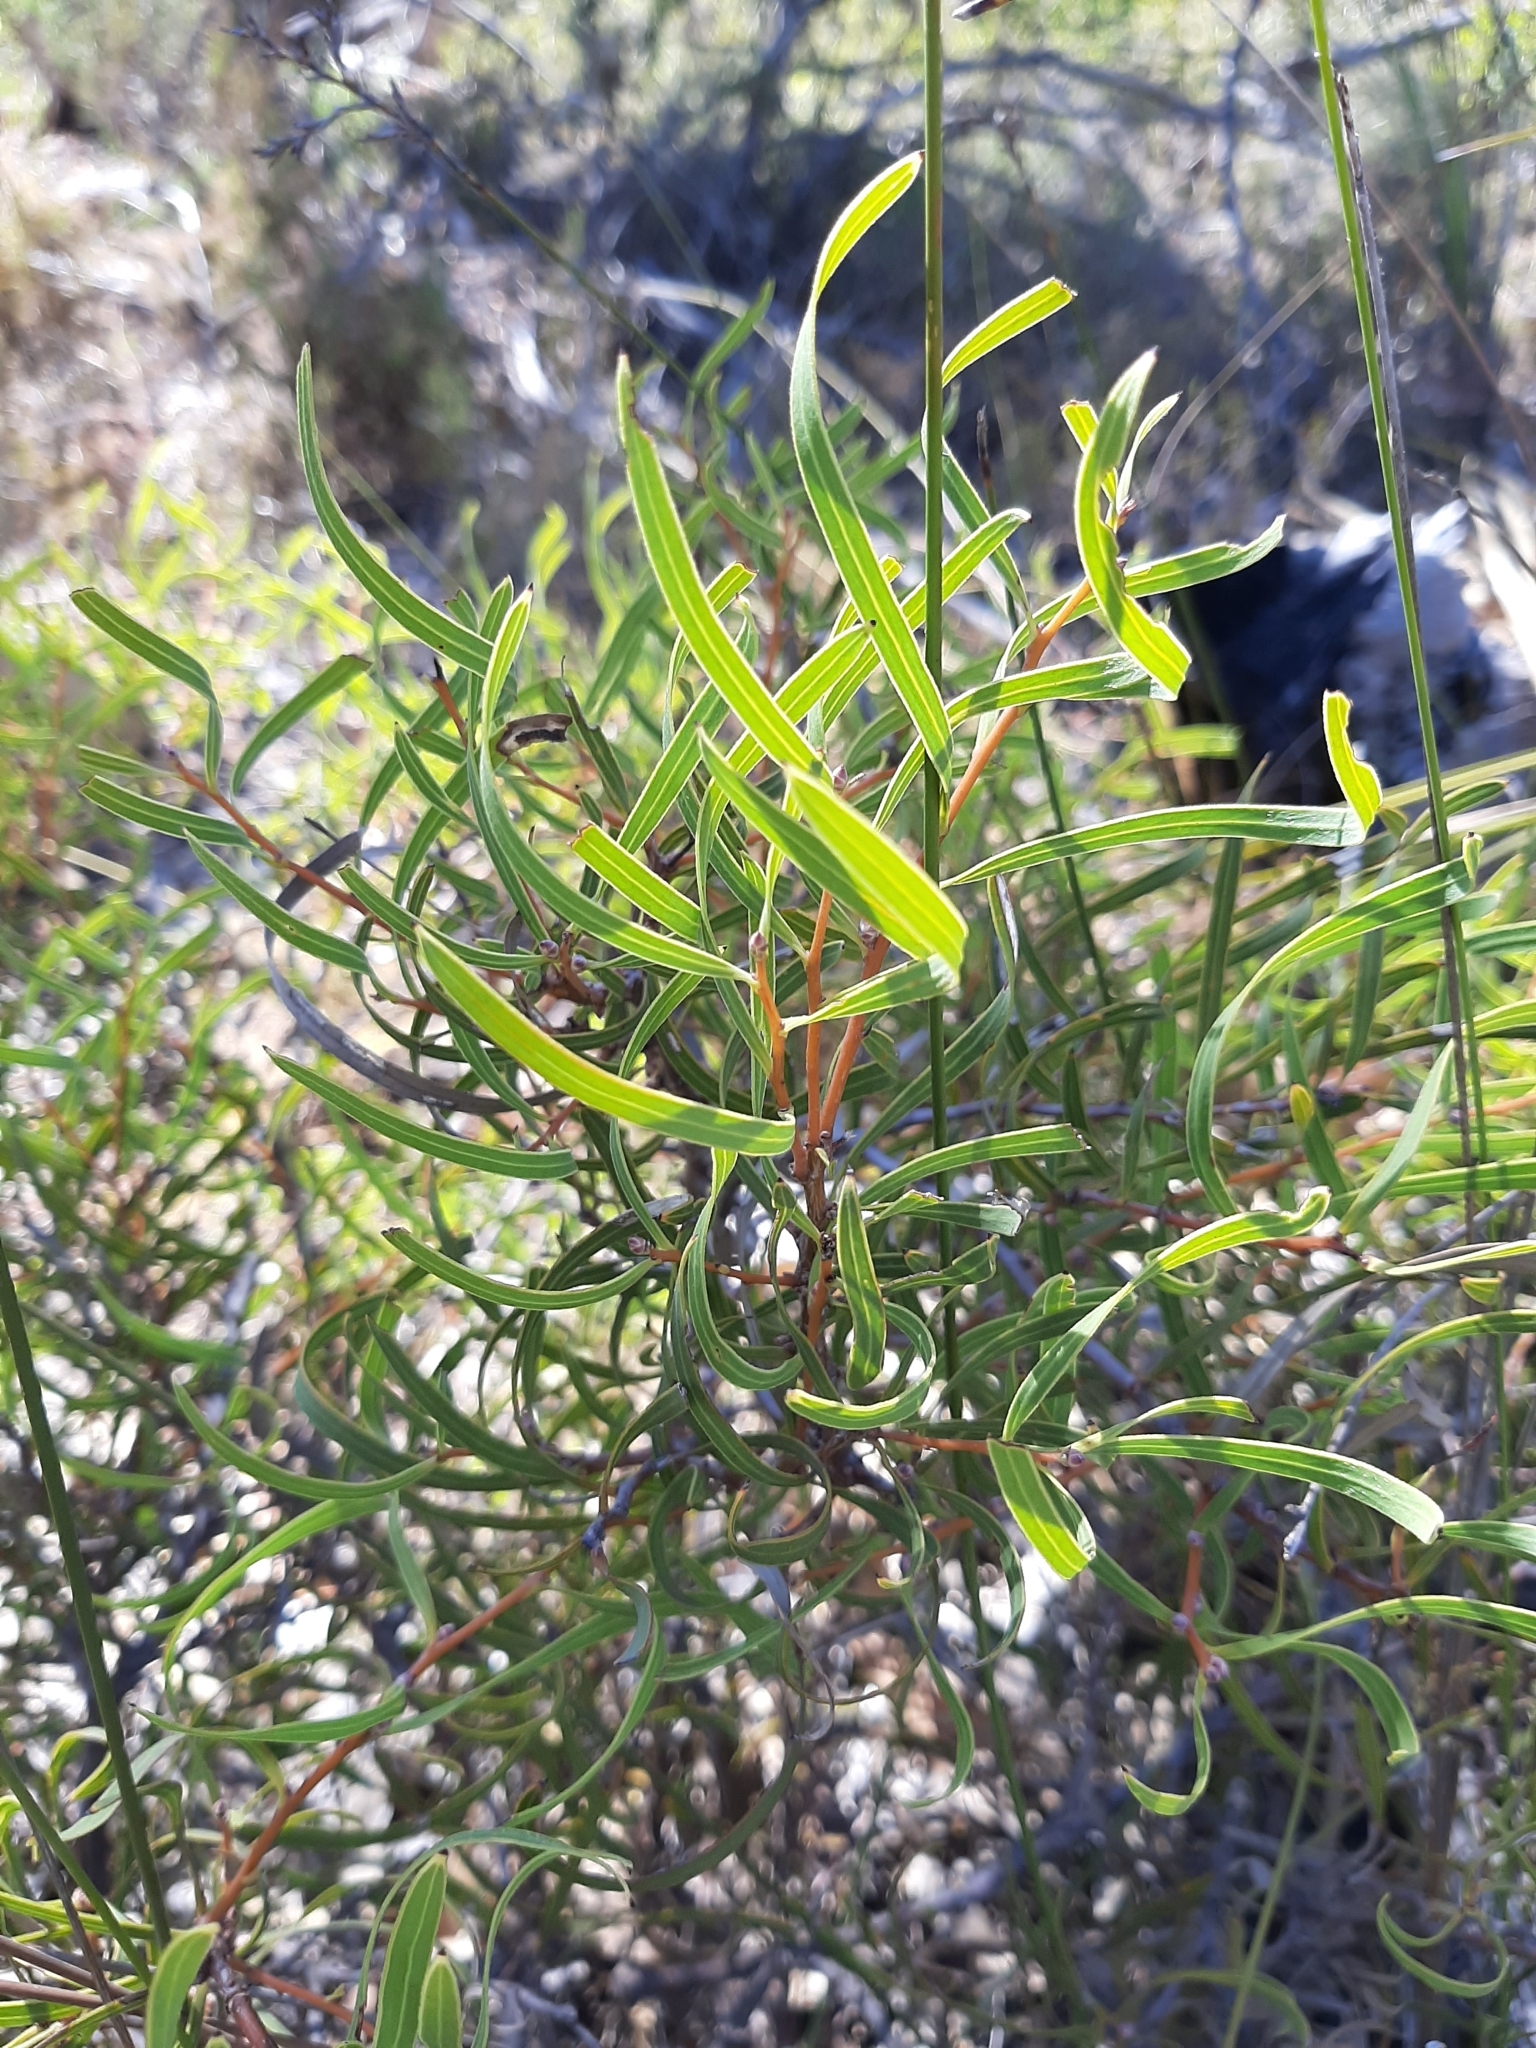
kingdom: Plantae
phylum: Tracheophyta
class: Magnoliopsida
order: Proteales
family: Proteaceae
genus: Hakea
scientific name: Hakea stenocarpa
